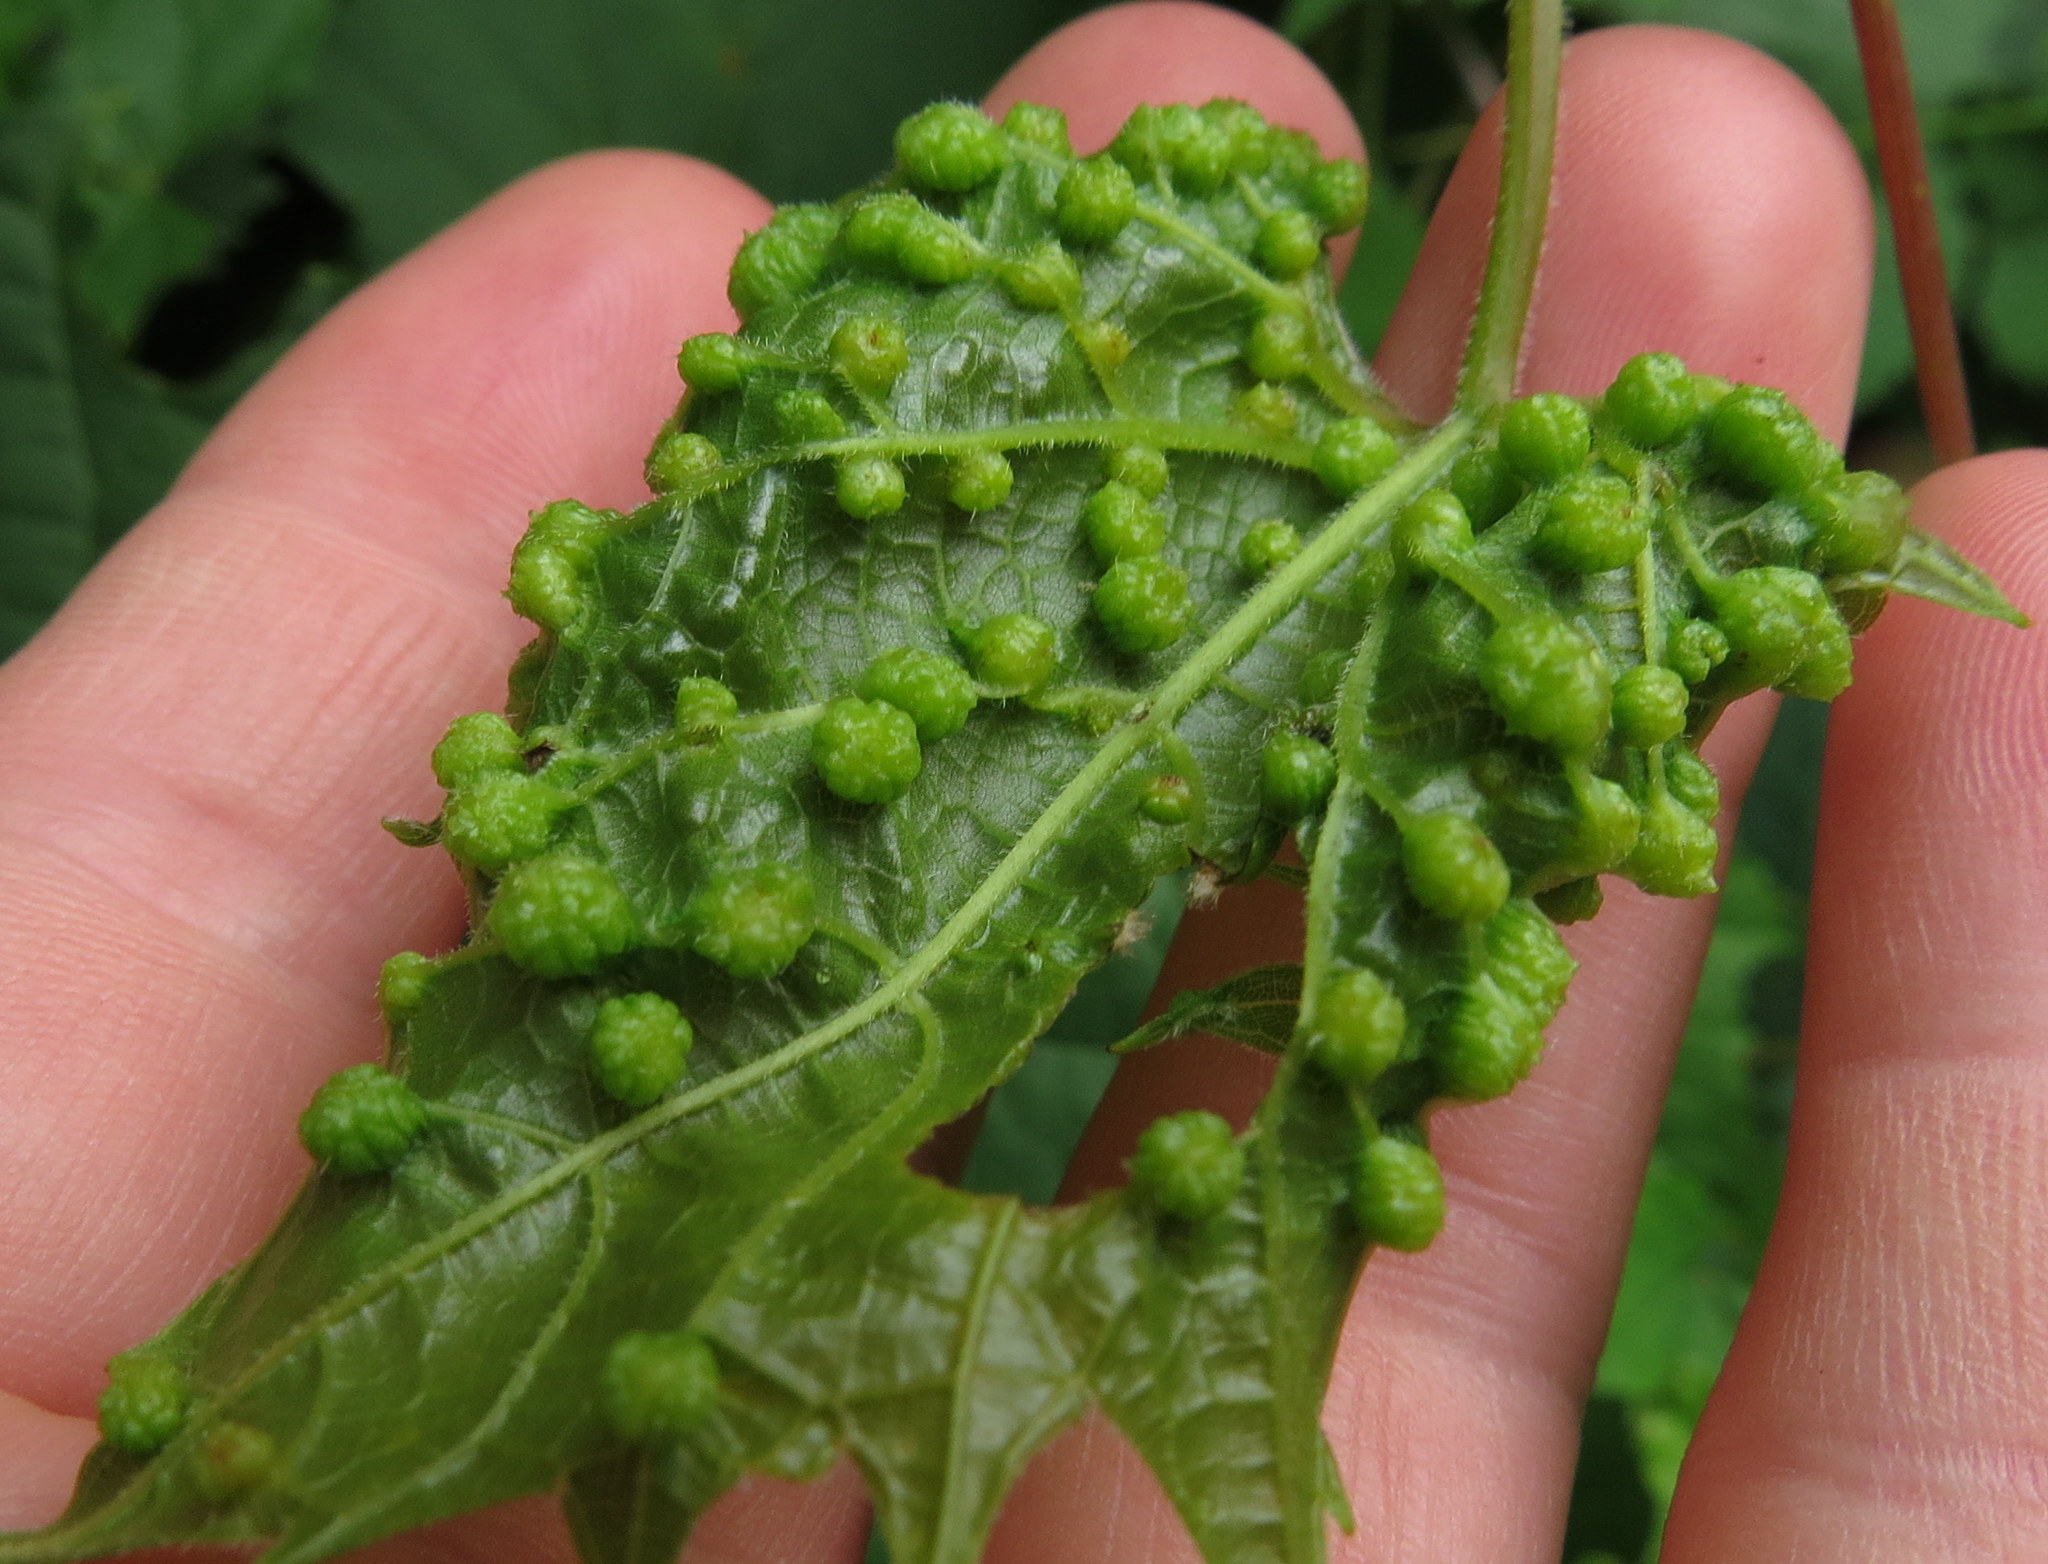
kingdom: Animalia
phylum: Arthropoda
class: Insecta
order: Hemiptera
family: Phylloxeridae
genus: Daktulosphaira
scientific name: Daktulosphaira vitifoliae
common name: Grape phylloxera
